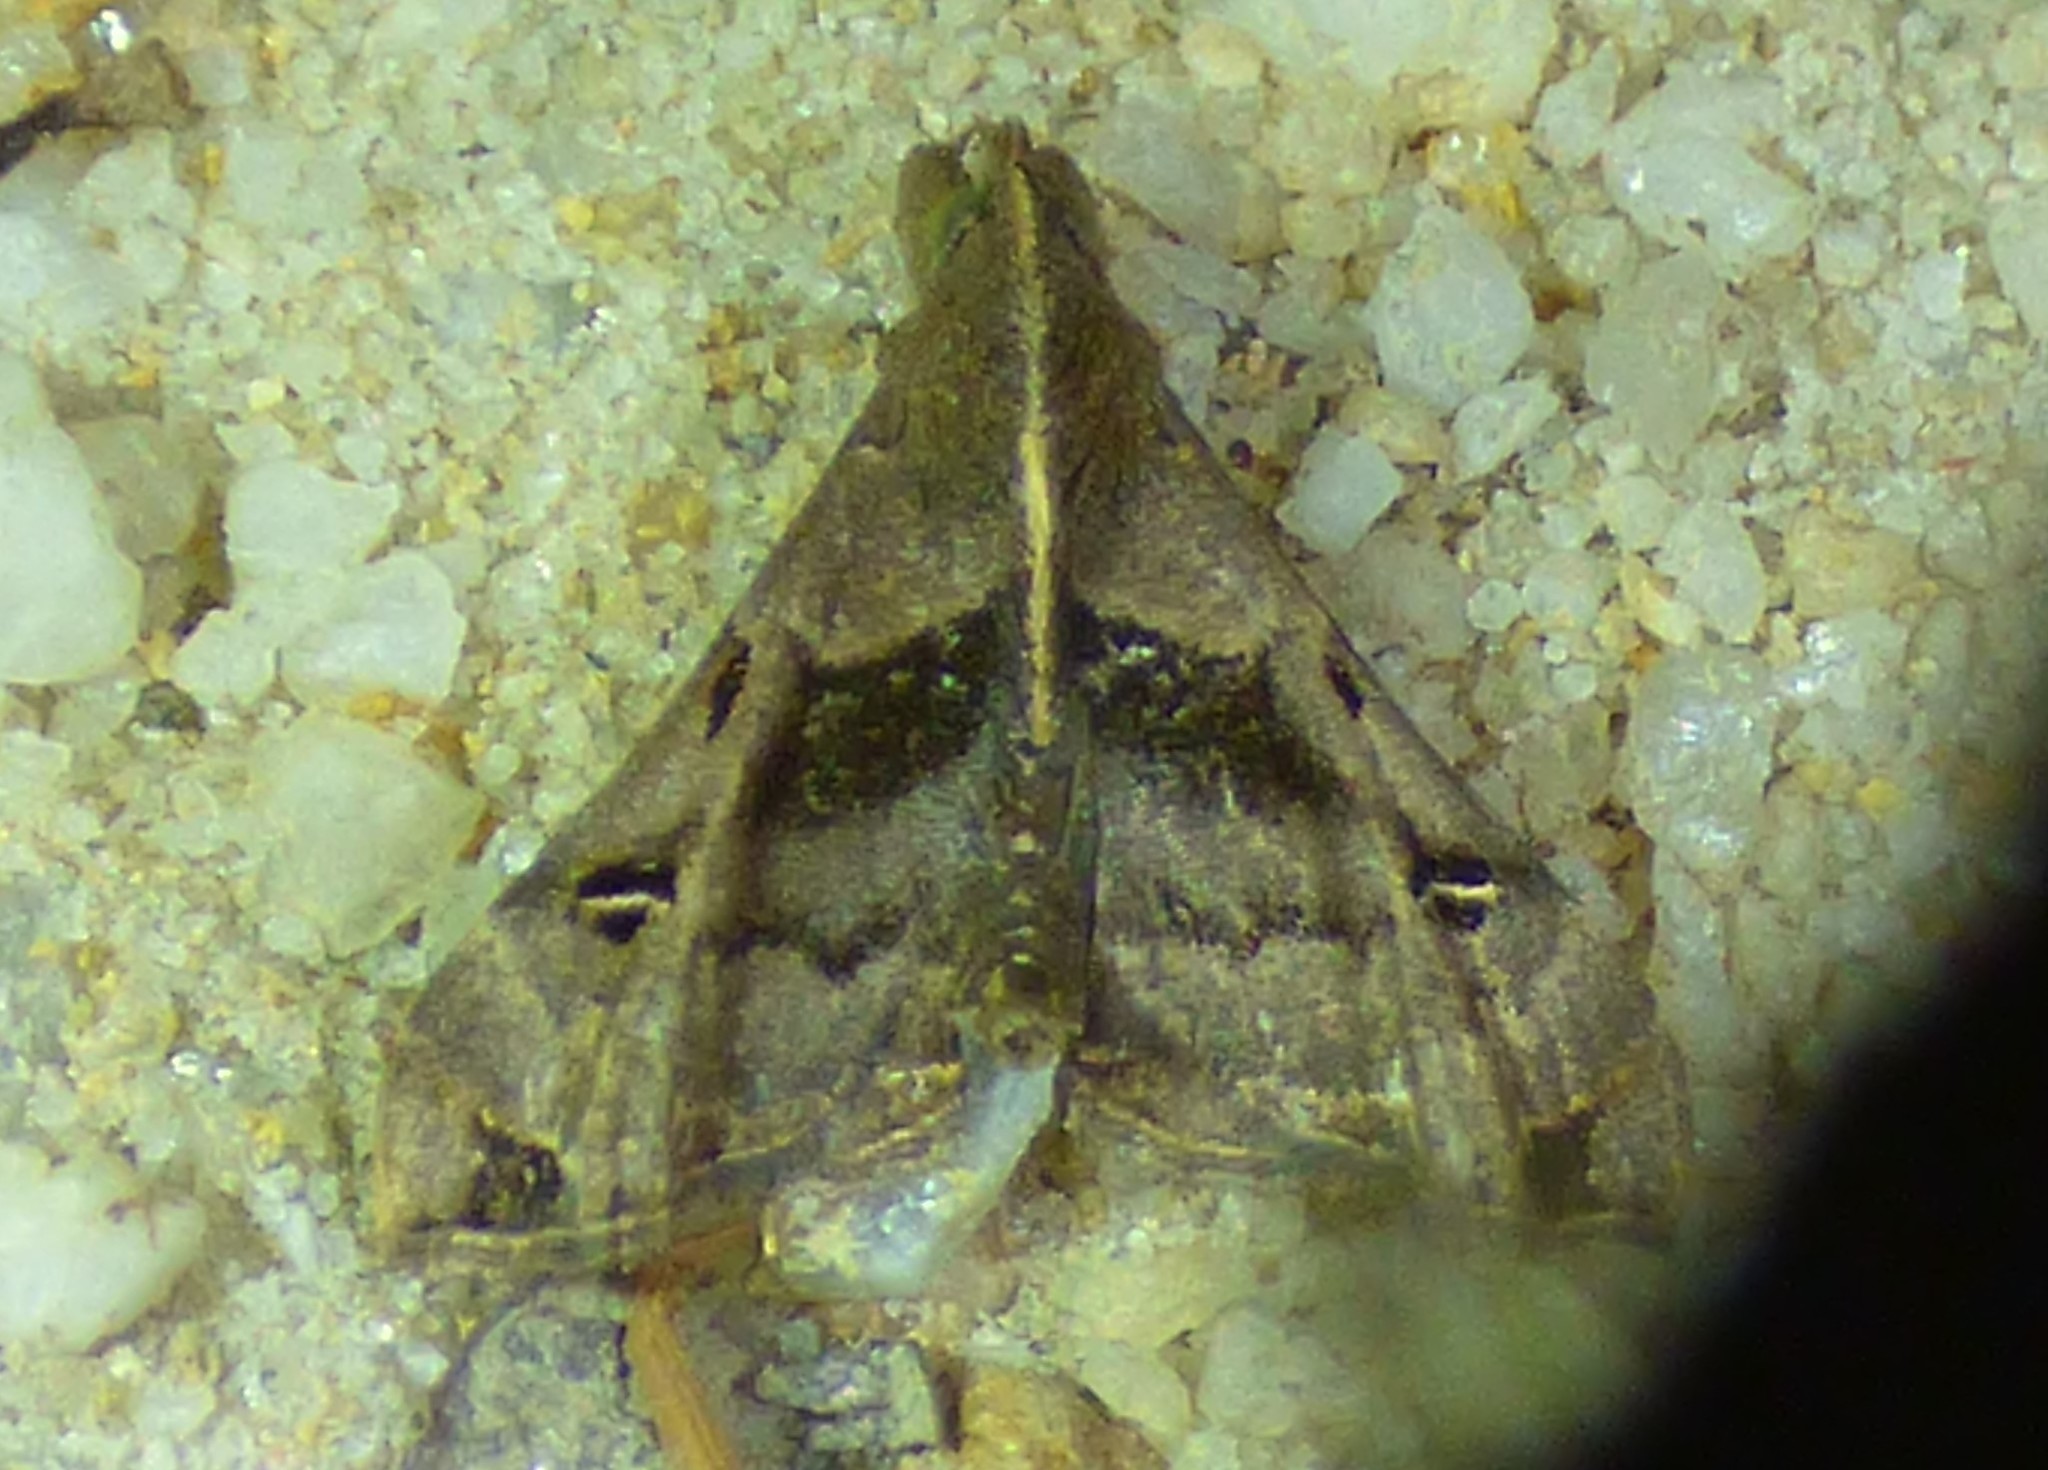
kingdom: Animalia
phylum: Arthropoda
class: Insecta
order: Lepidoptera
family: Erebidae
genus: Palthis
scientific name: Palthis asopialis
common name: Faint-spotted palthis moth
